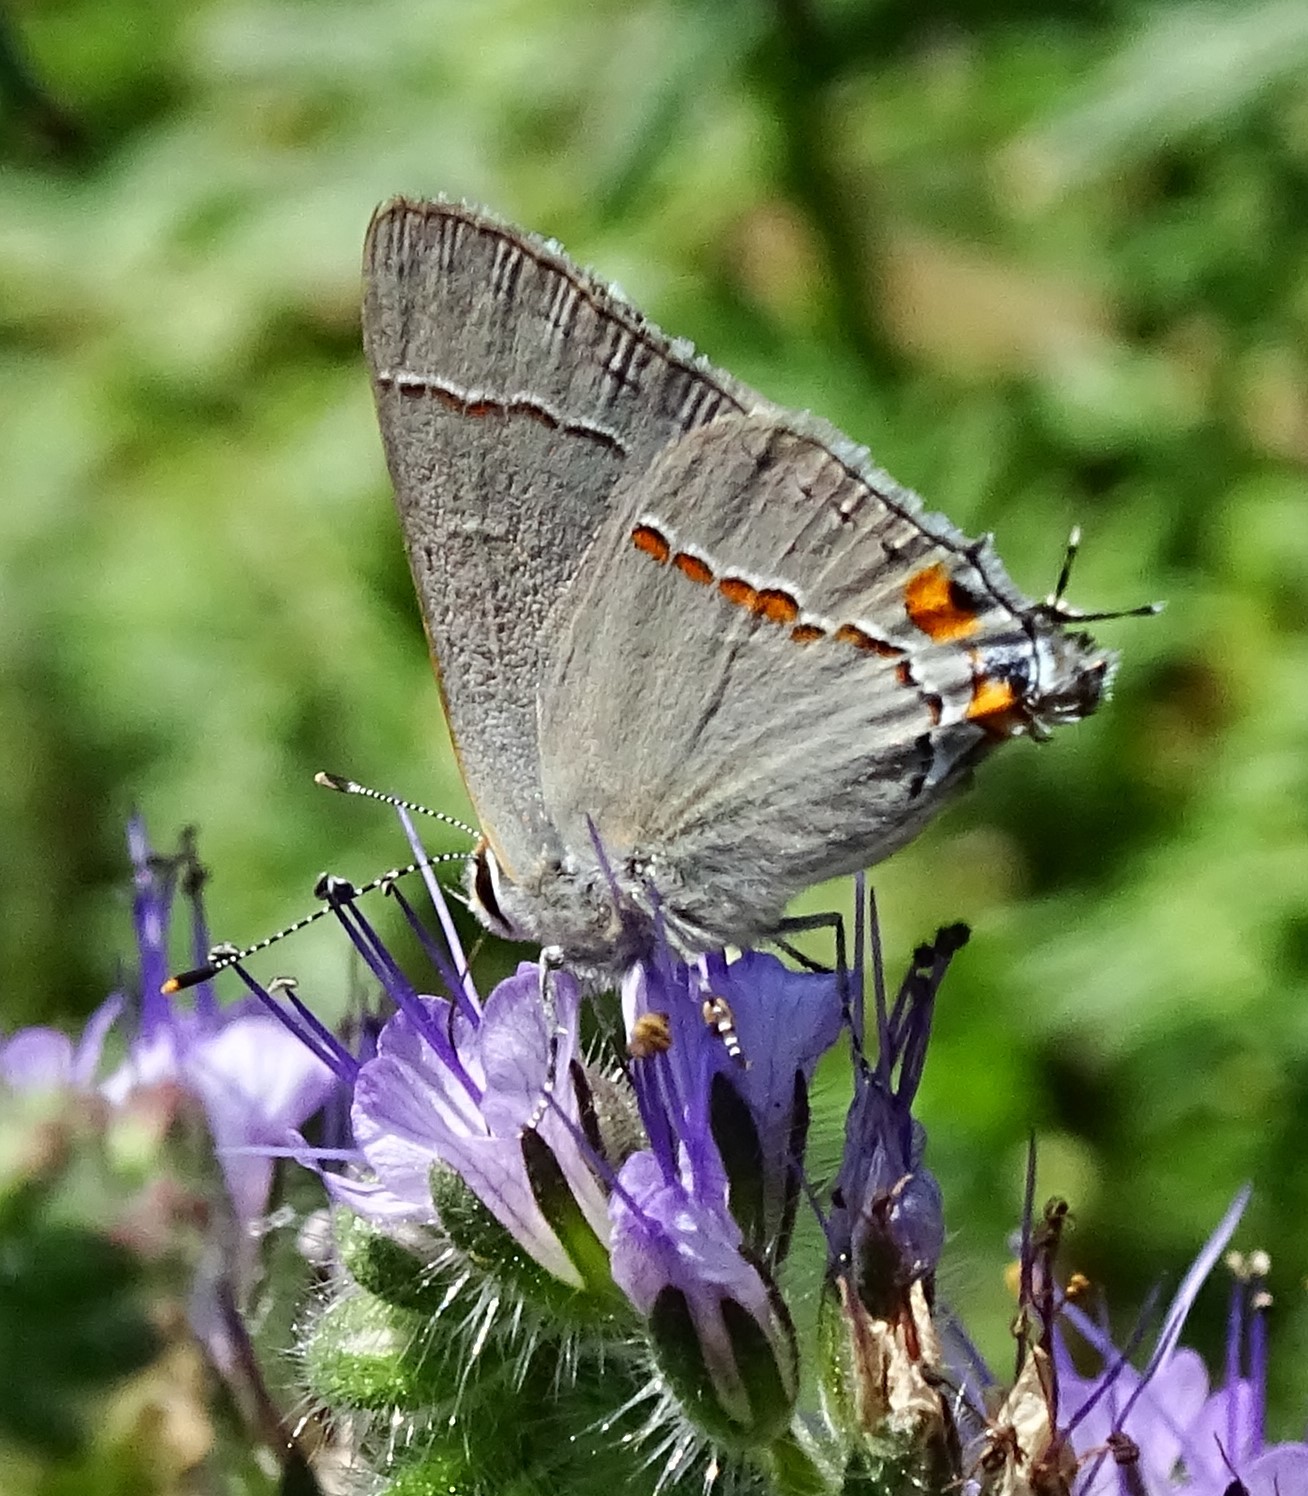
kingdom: Animalia
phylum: Arthropoda
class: Insecta
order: Lepidoptera
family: Lycaenidae
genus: Strymon
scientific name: Strymon melinus
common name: Gray hairstreak
